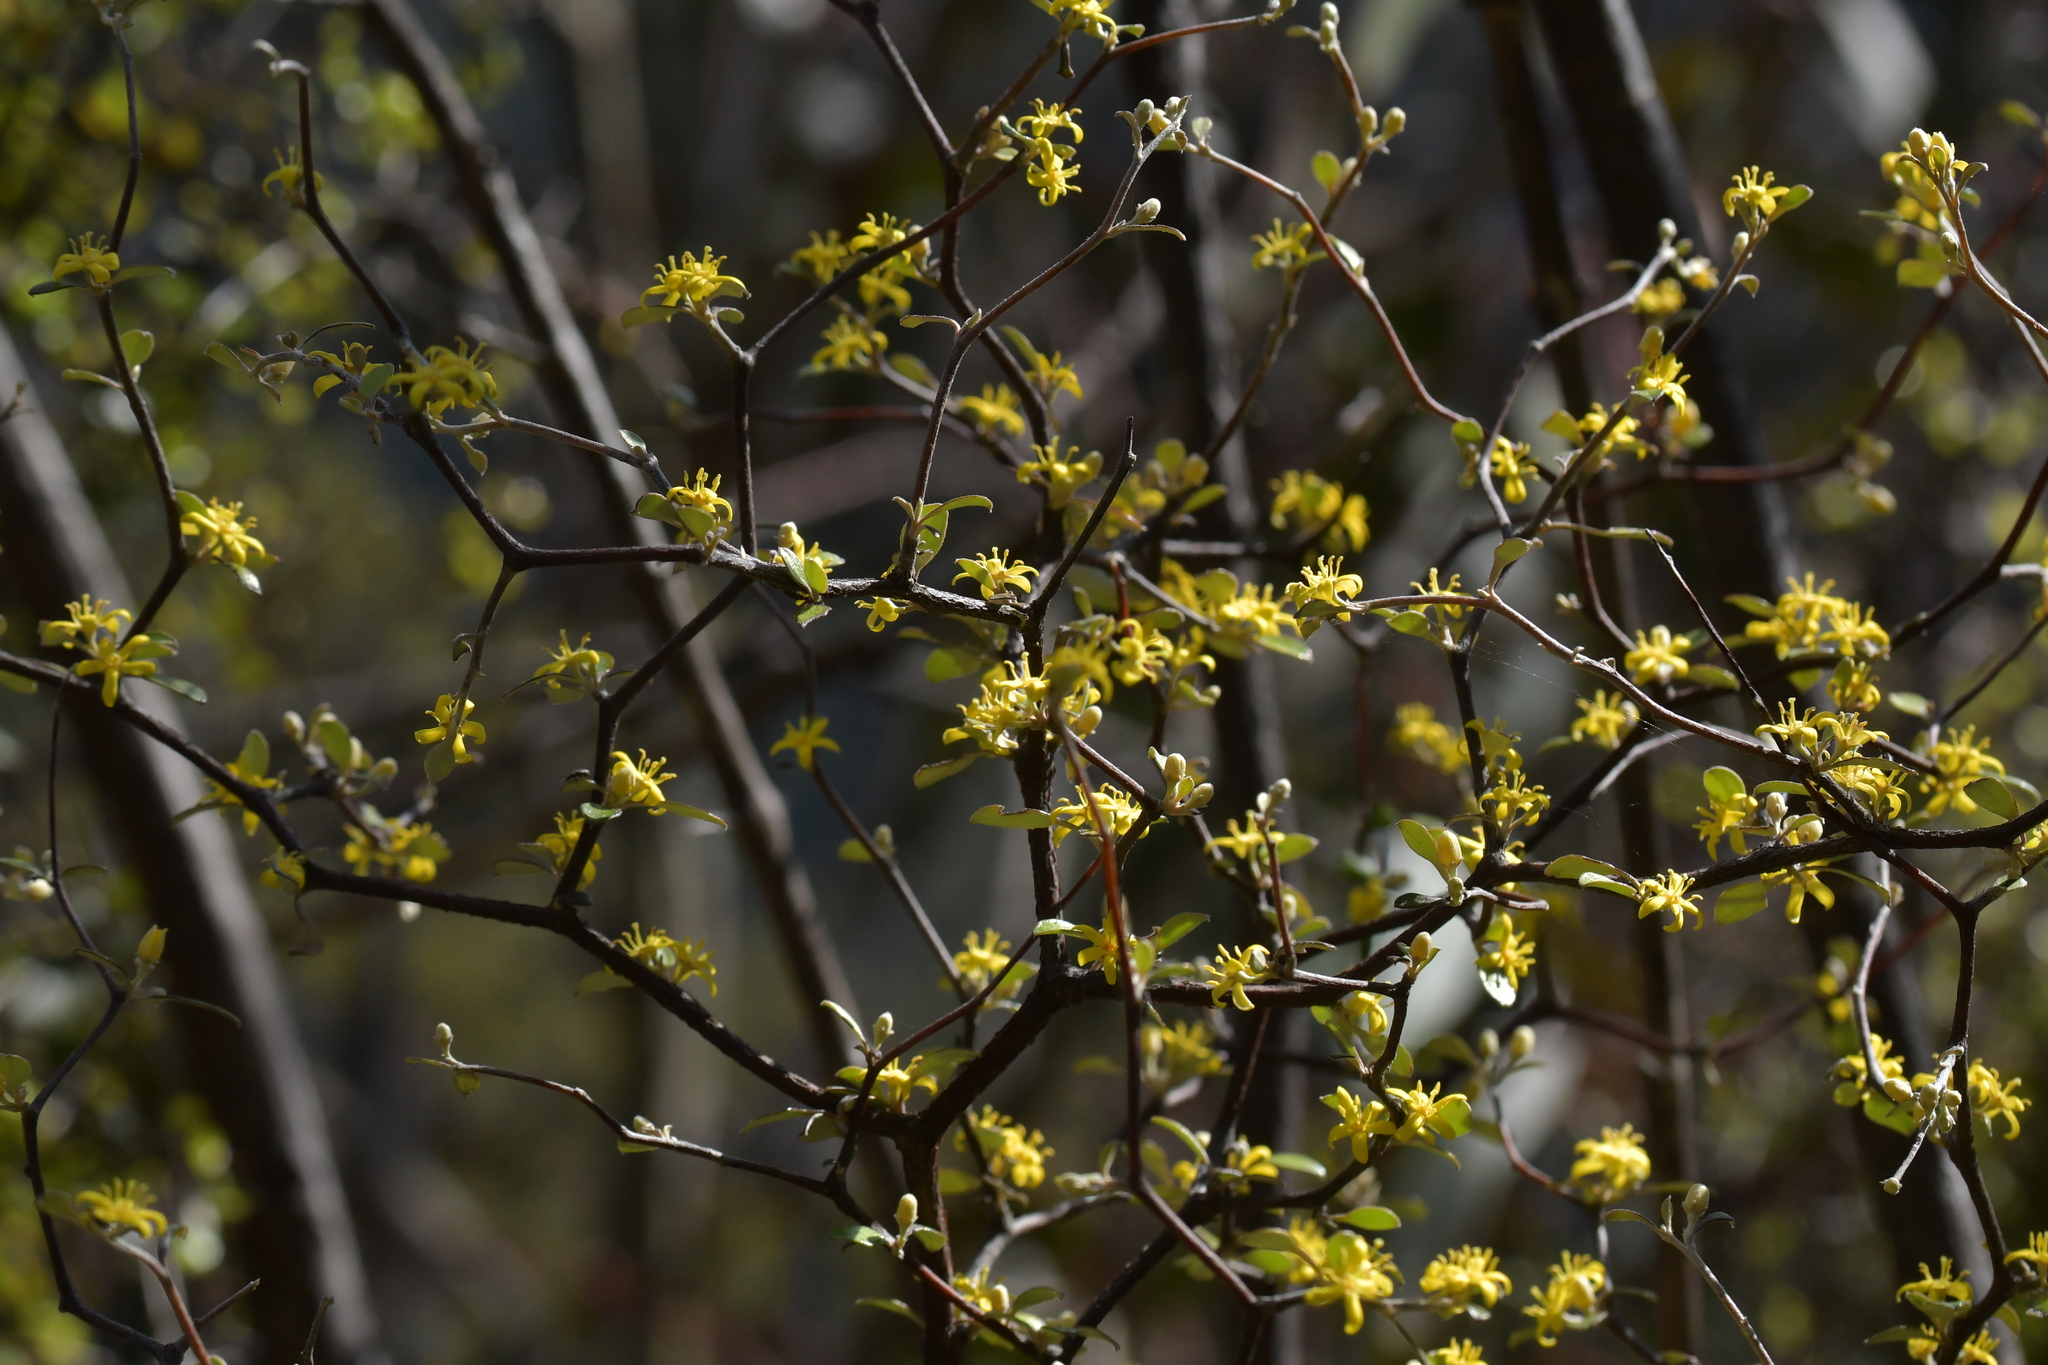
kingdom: Plantae
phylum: Tracheophyta
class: Magnoliopsida
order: Asterales
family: Argophyllaceae
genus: Corokia
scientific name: Corokia cotoneaster
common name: Wire nettingbush
